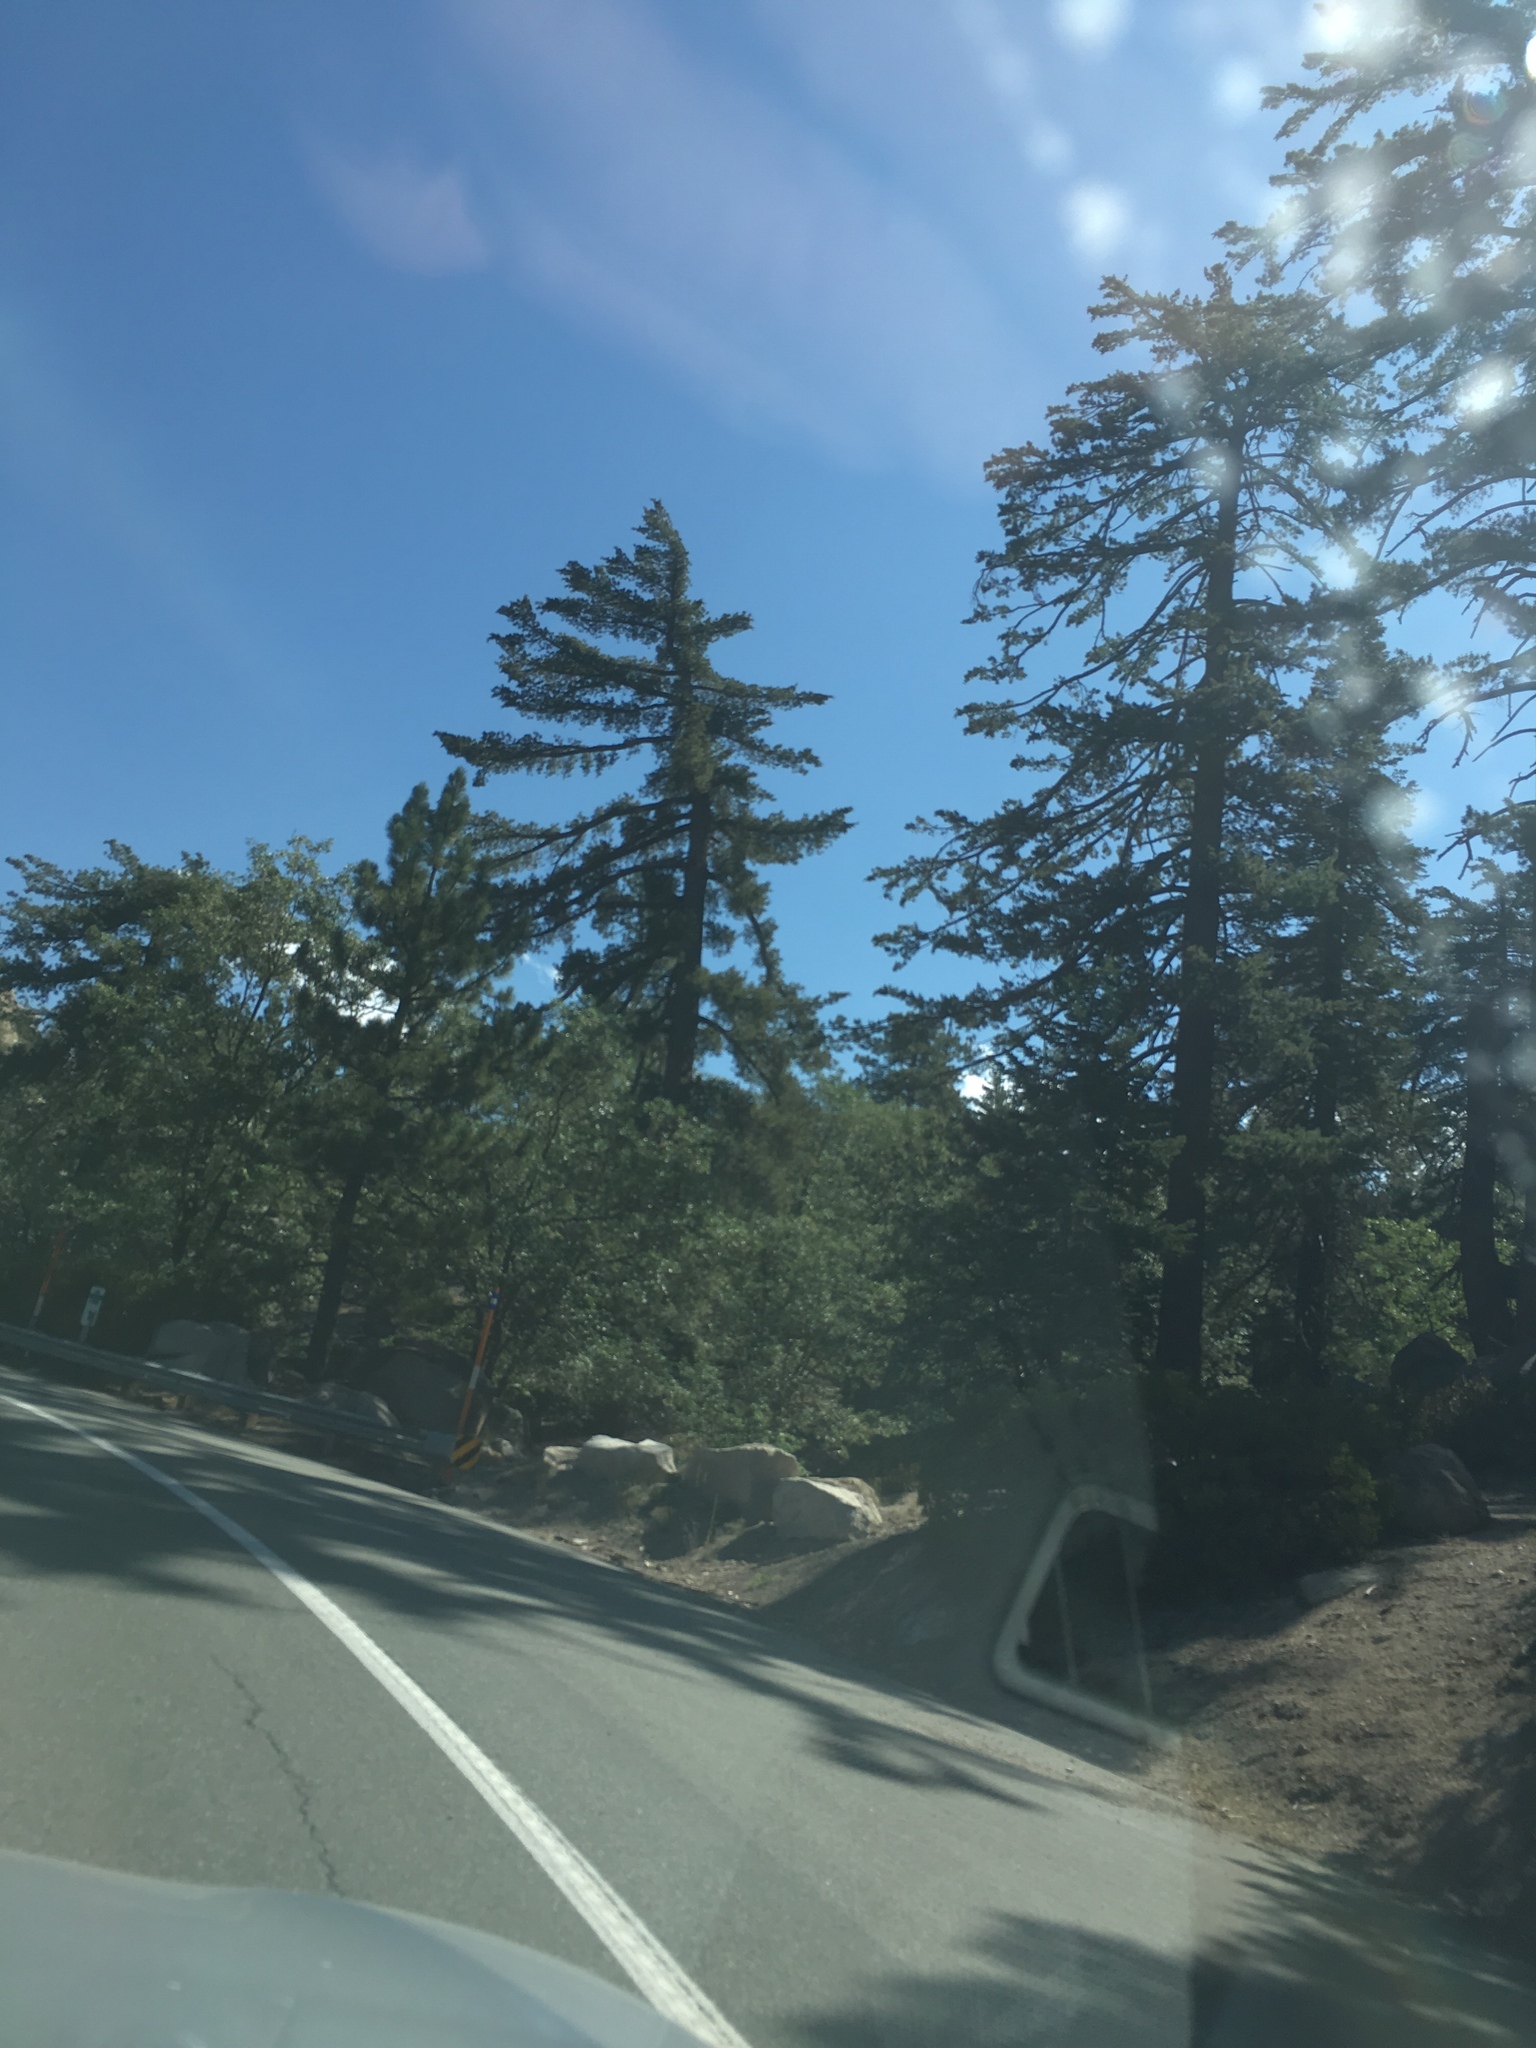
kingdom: Plantae
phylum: Tracheophyta
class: Pinopsida
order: Pinales
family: Pinaceae
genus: Pinus
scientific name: Pinus lambertiana
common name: Sugar pine
